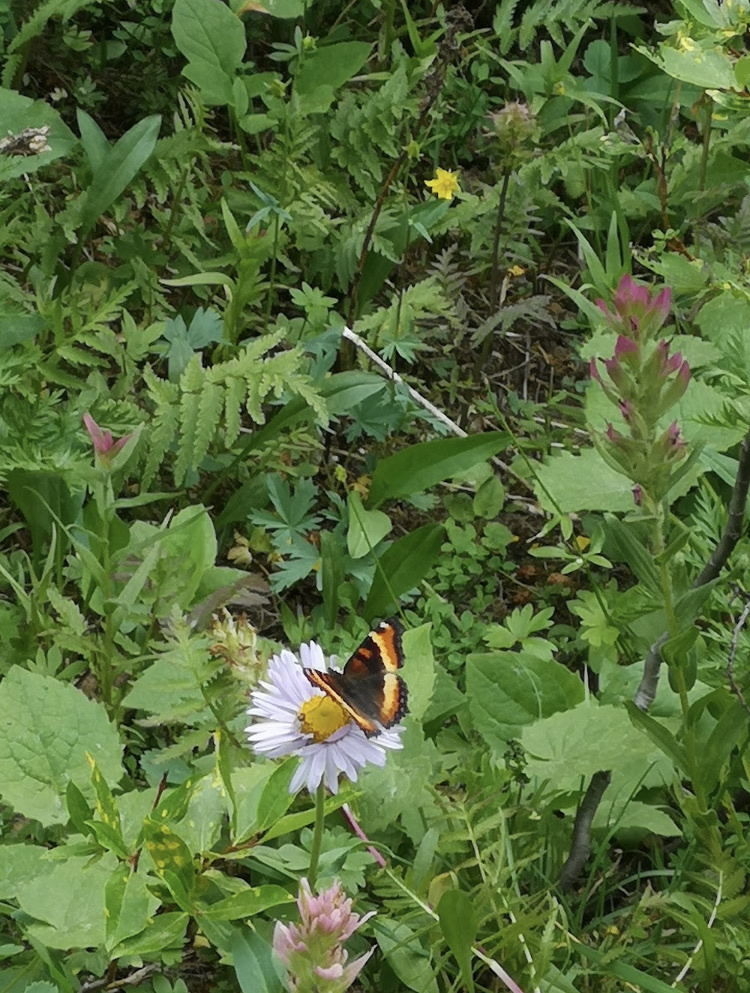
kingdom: Animalia
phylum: Arthropoda
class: Insecta
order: Lepidoptera
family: Nymphalidae
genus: Aglais
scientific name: Aglais milberti
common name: Milbert's tortoiseshell
